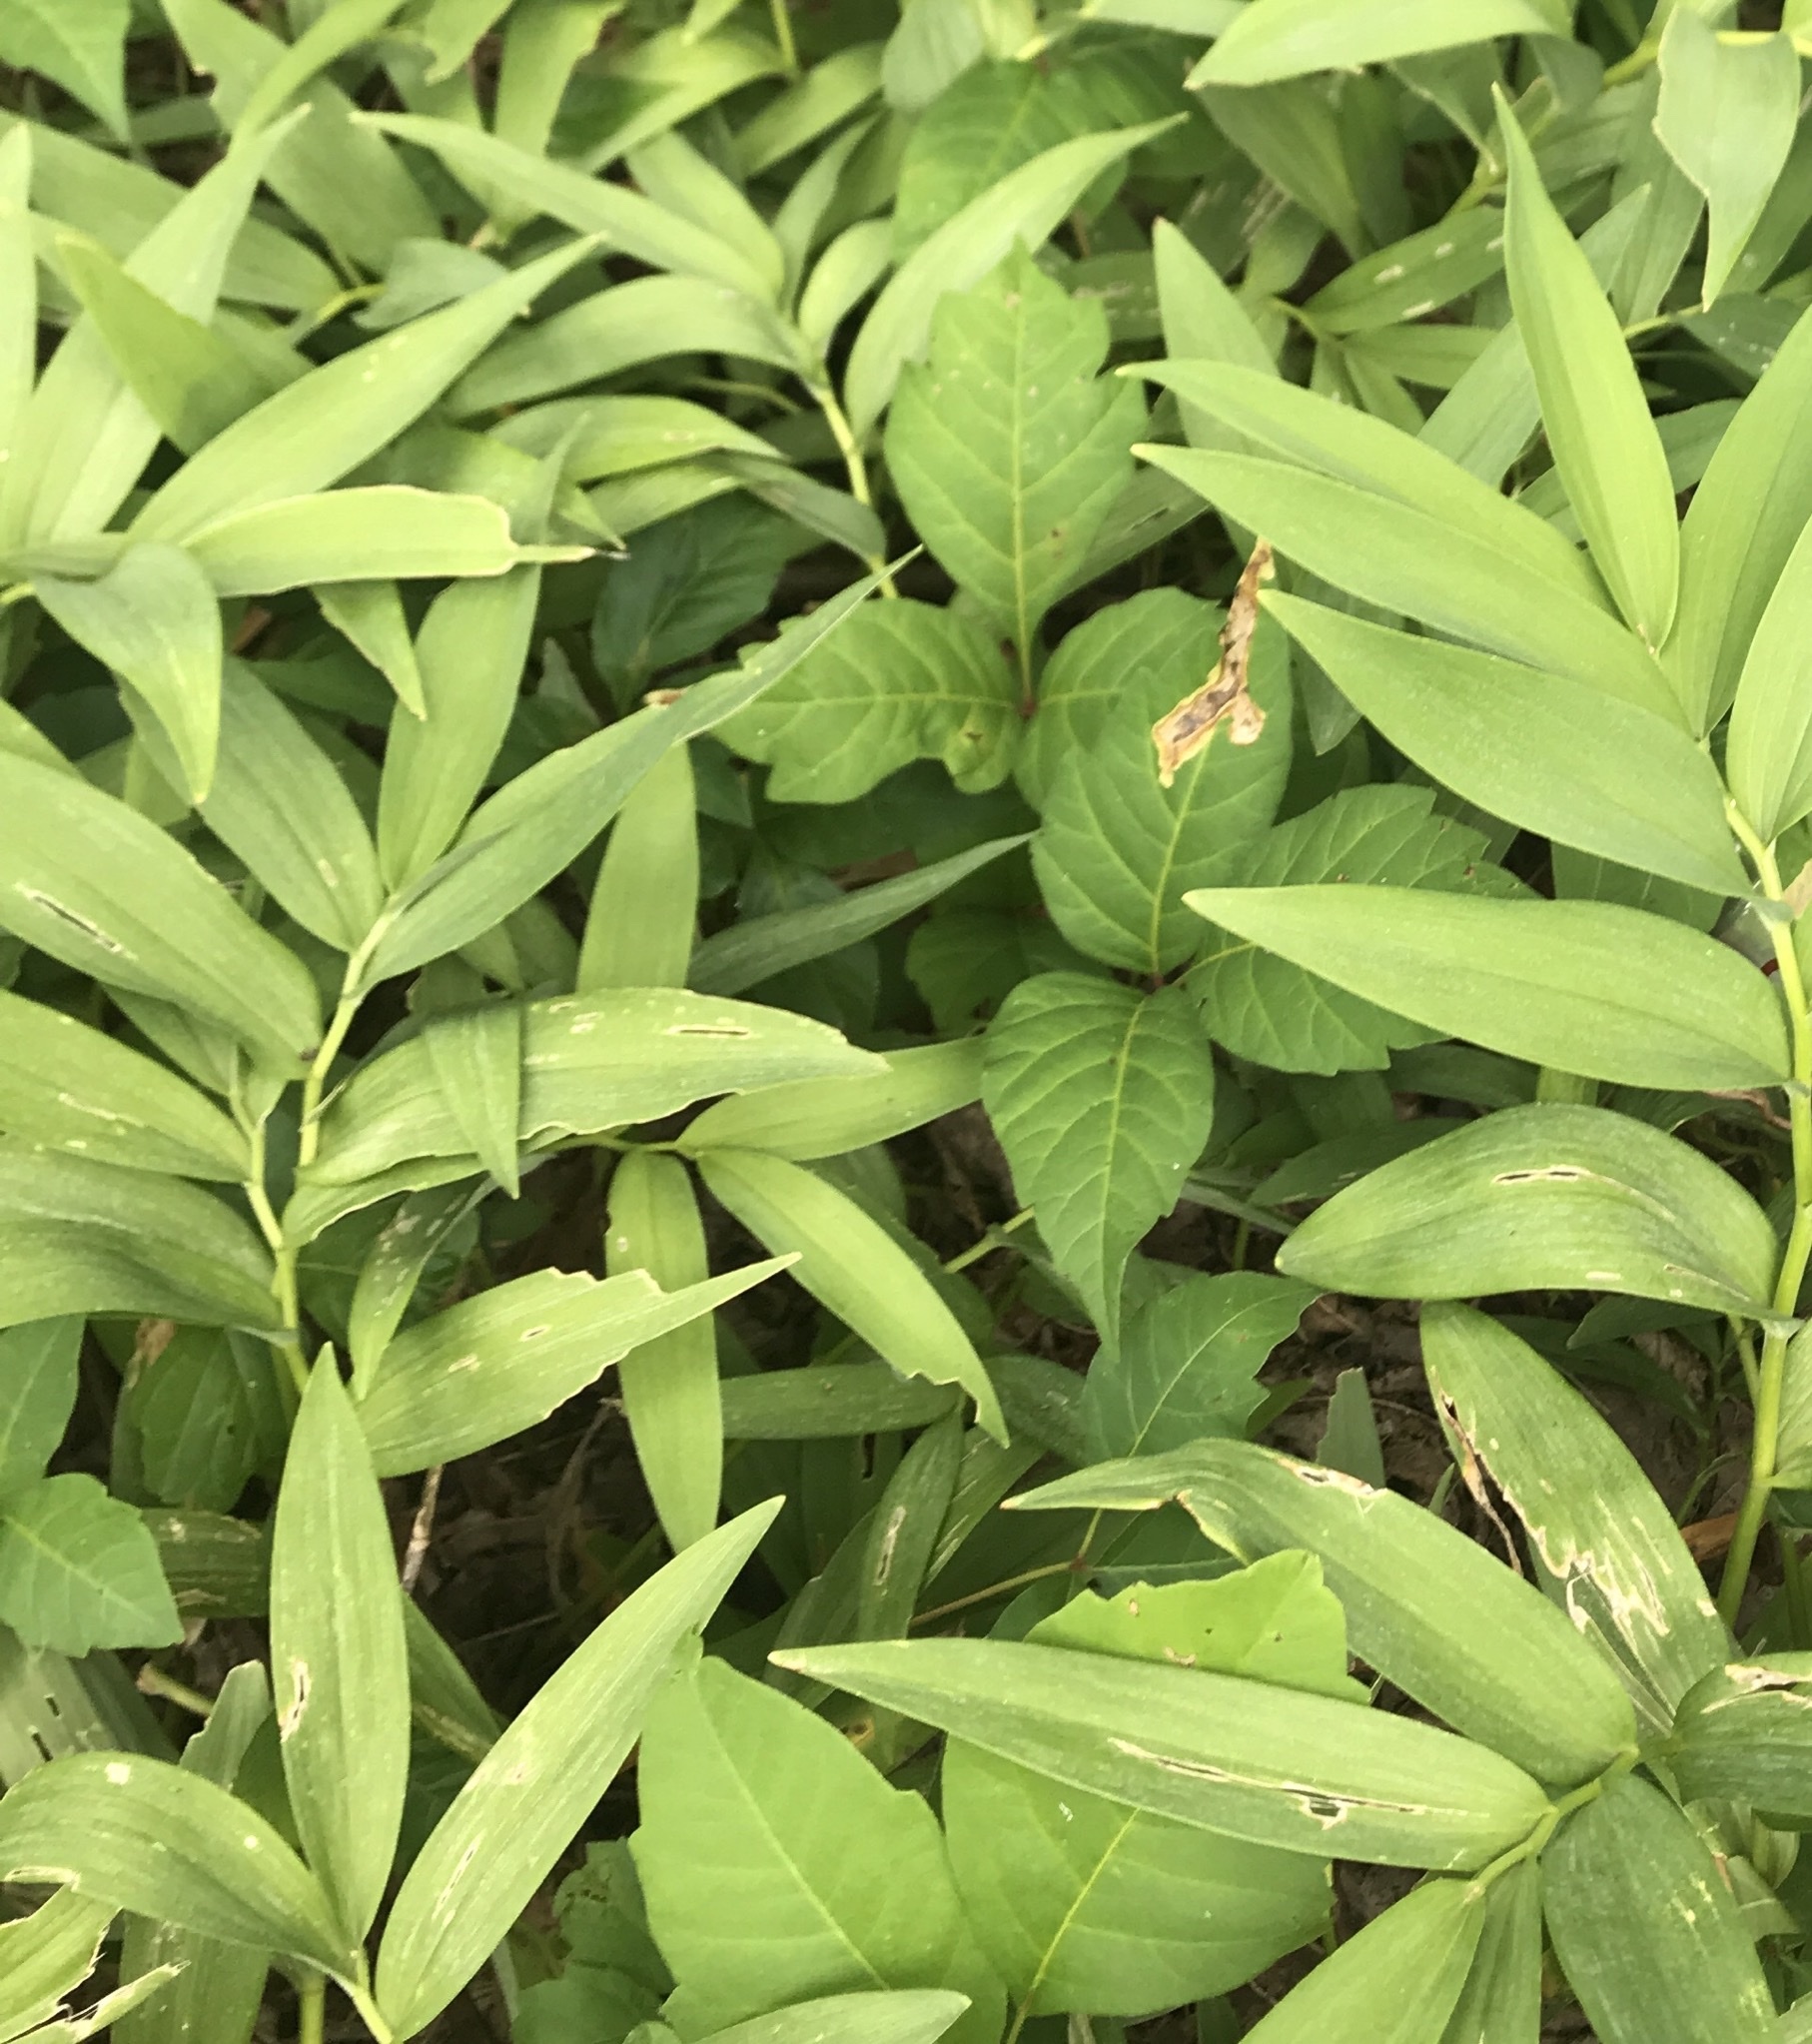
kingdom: Plantae
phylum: Tracheophyta
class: Liliopsida
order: Asparagales
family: Asparagaceae
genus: Maianthemum
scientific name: Maianthemum stellatum
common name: Little false solomon's seal
